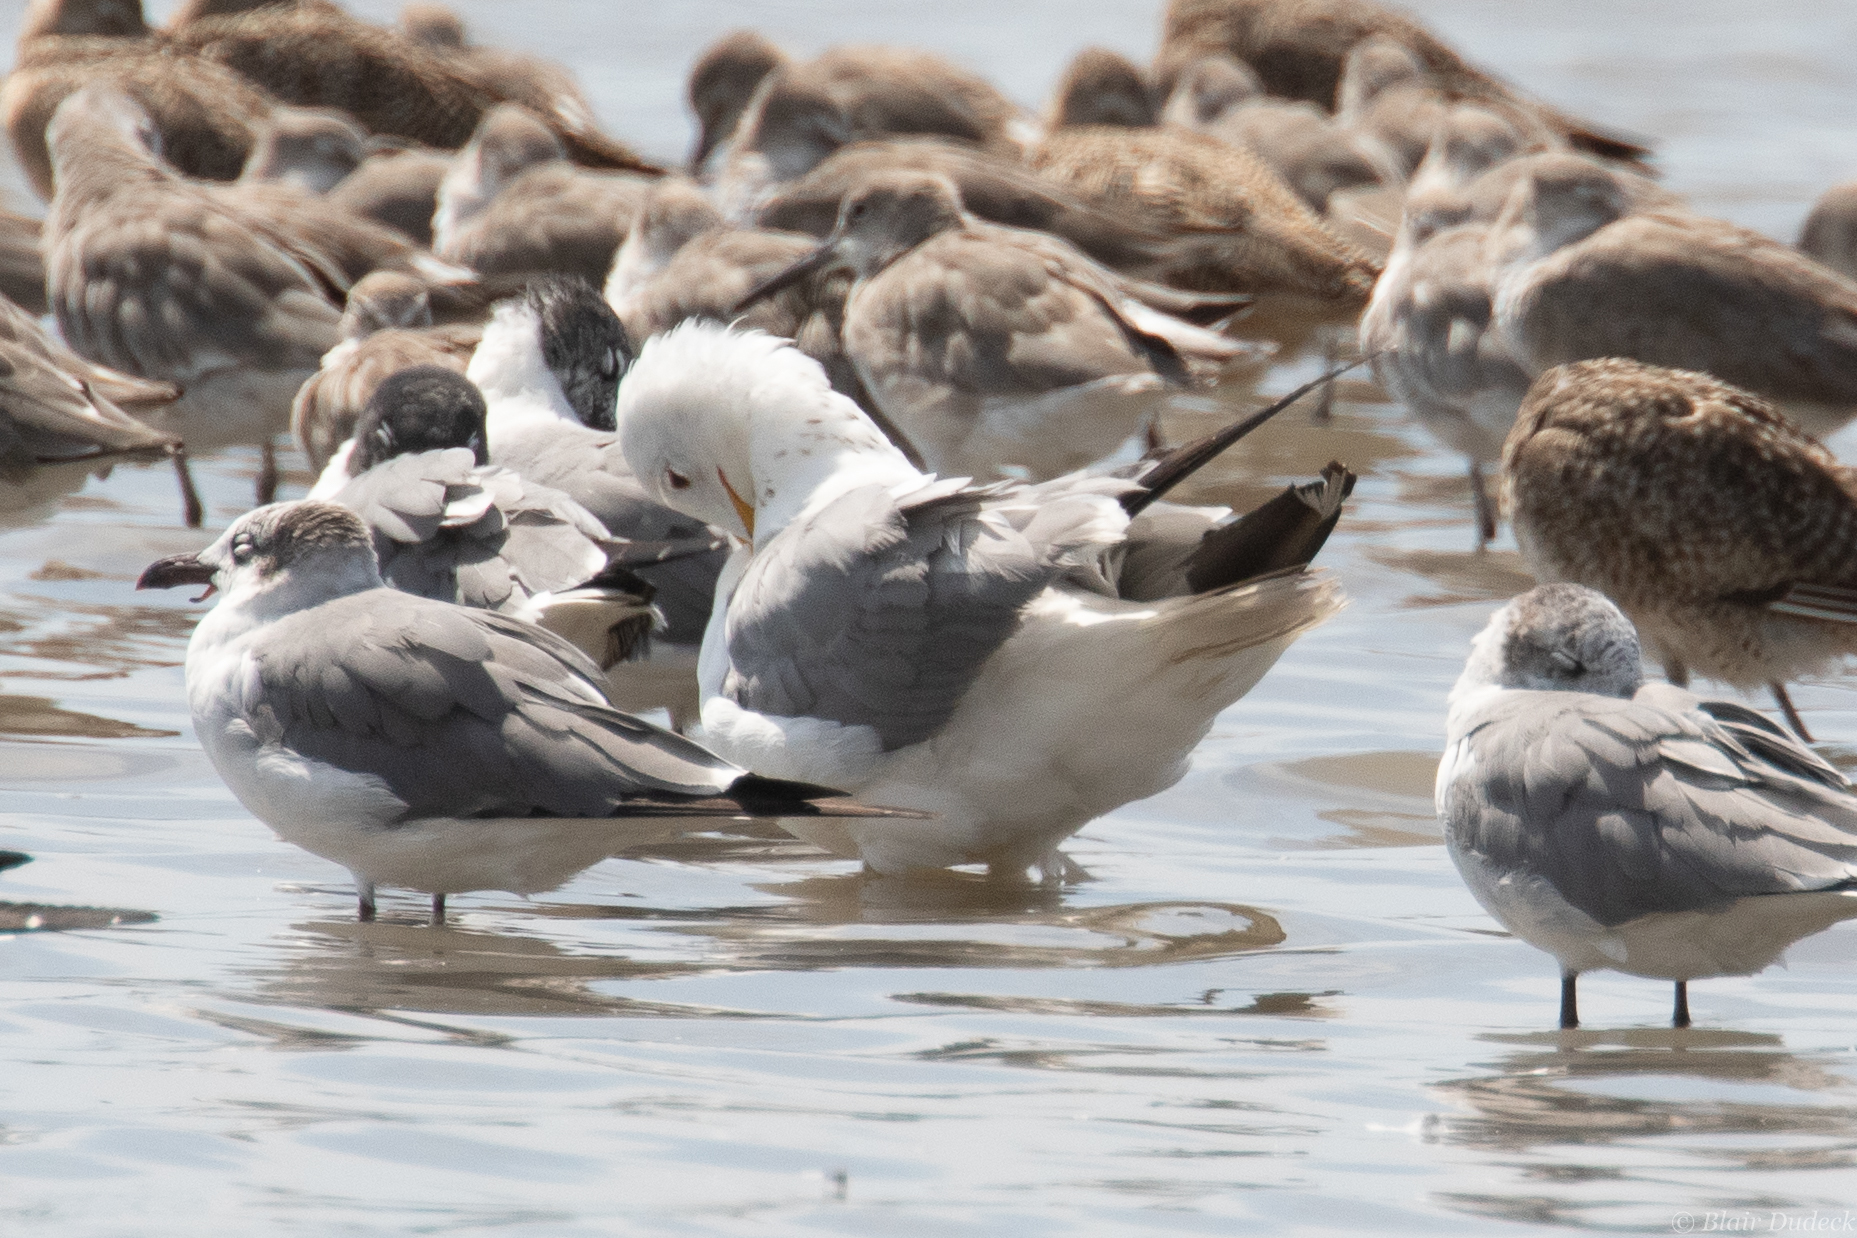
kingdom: Animalia
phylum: Chordata
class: Aves
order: Charadriiformes
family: Laridae
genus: Larus
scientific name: Larus californicus
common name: California gull
